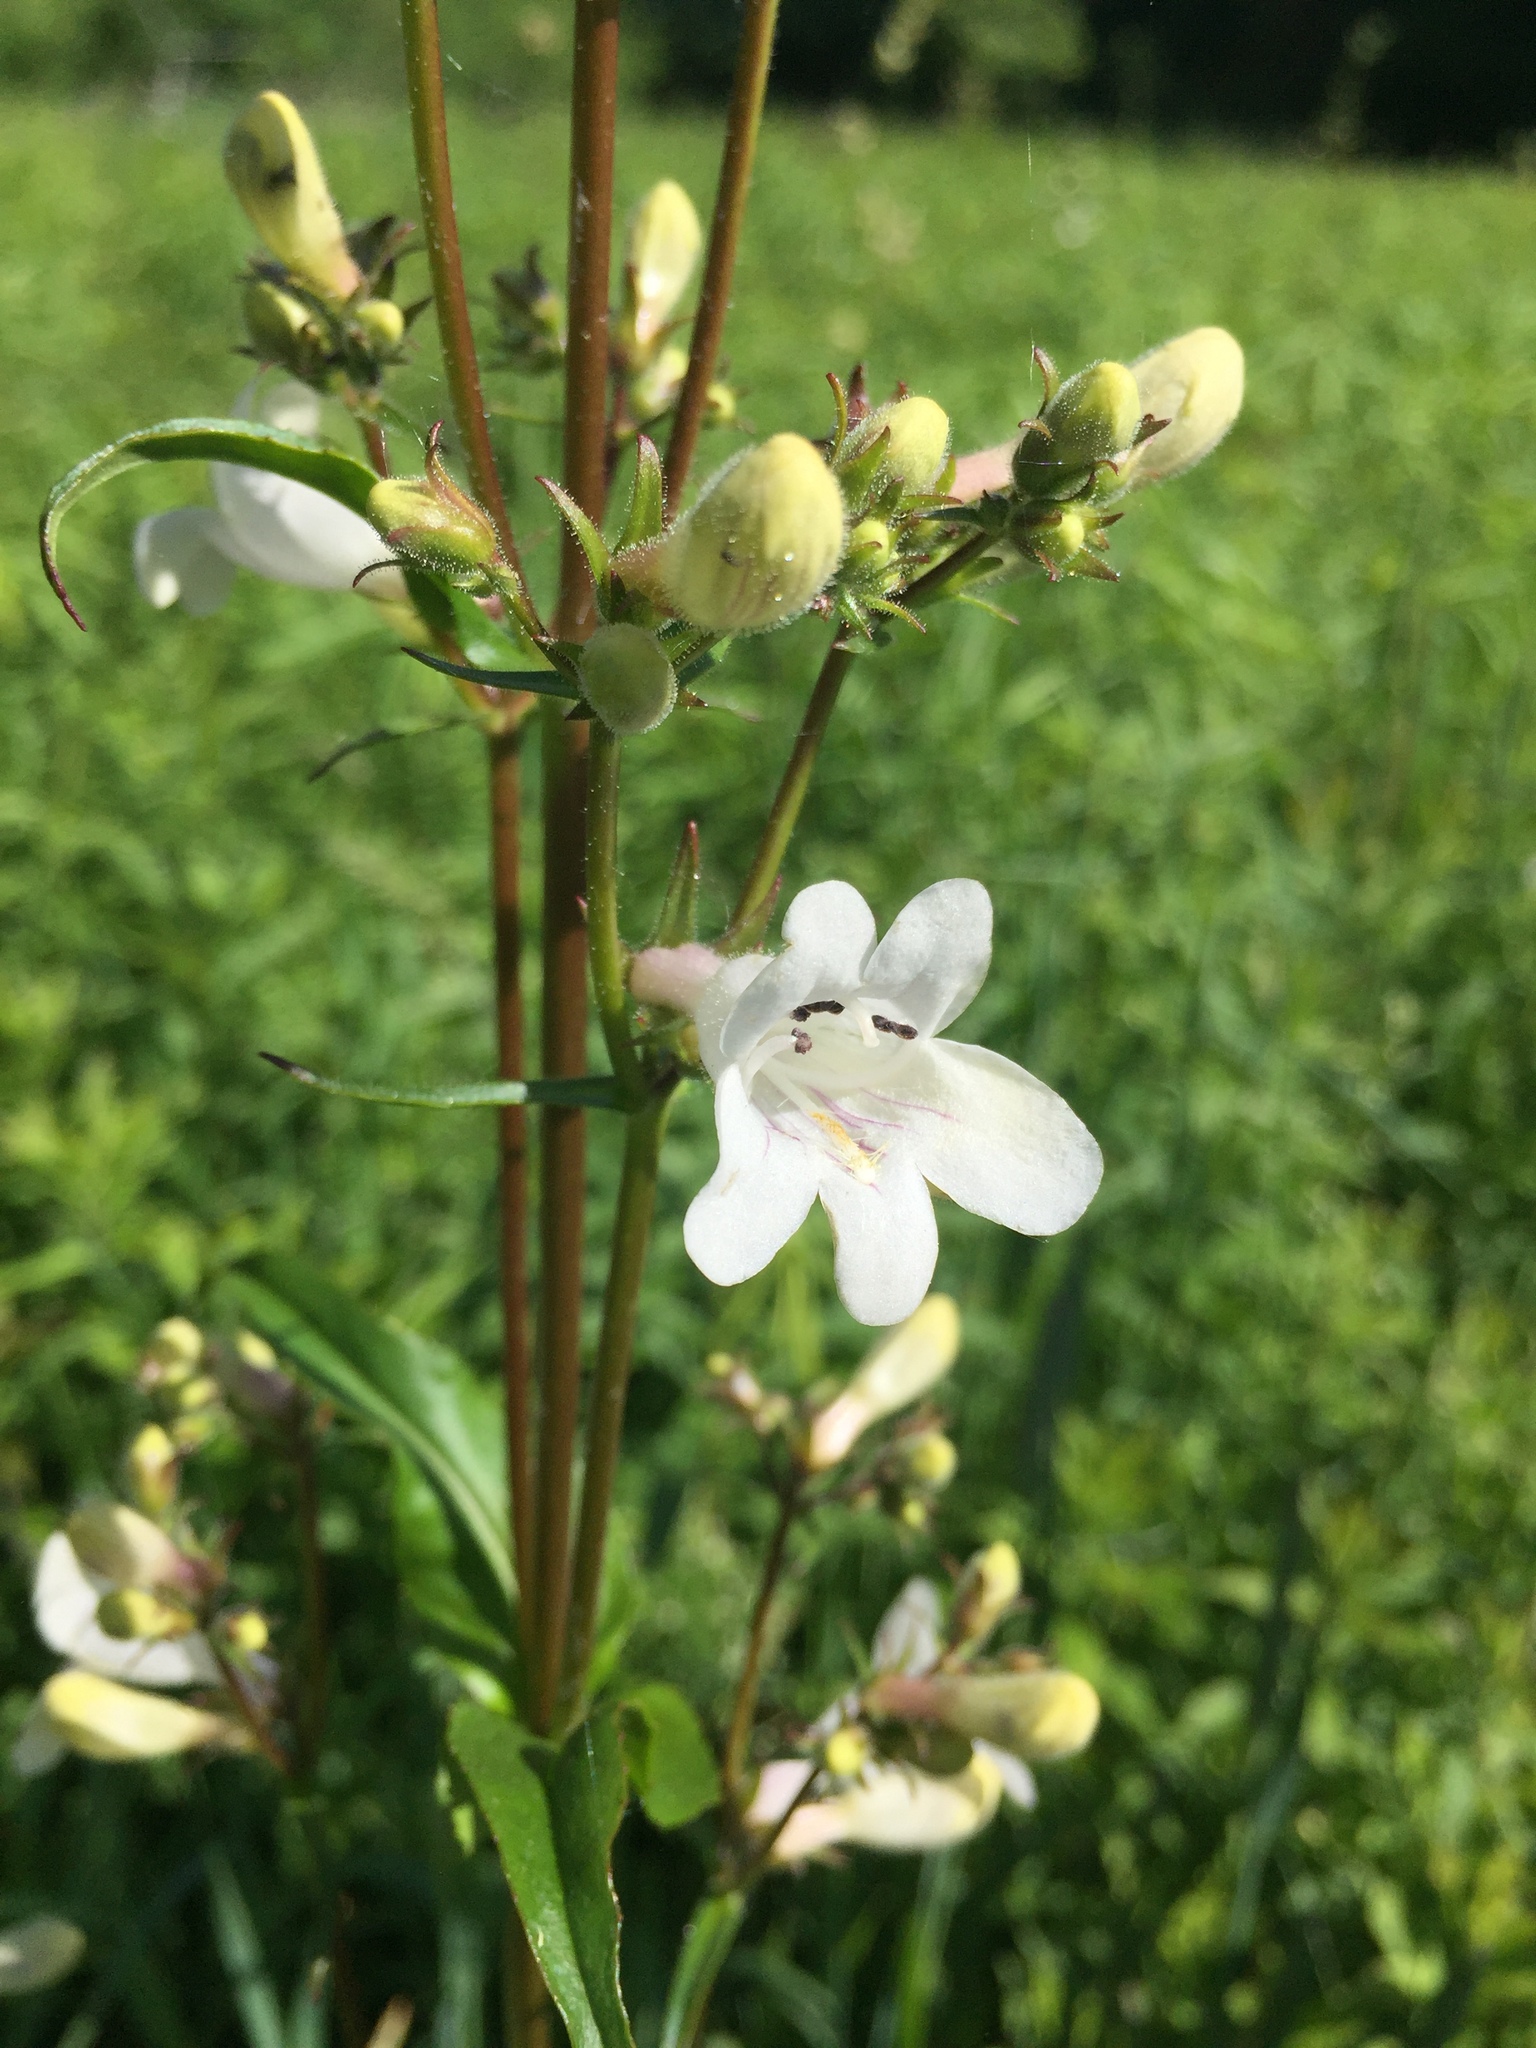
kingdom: Plantae
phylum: Tracheophyta
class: Magnoliopsida
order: Lamiales
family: Plantaginaceae
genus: Penstemon
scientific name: Penstemon digitalis
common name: Foxglove beardtongue
